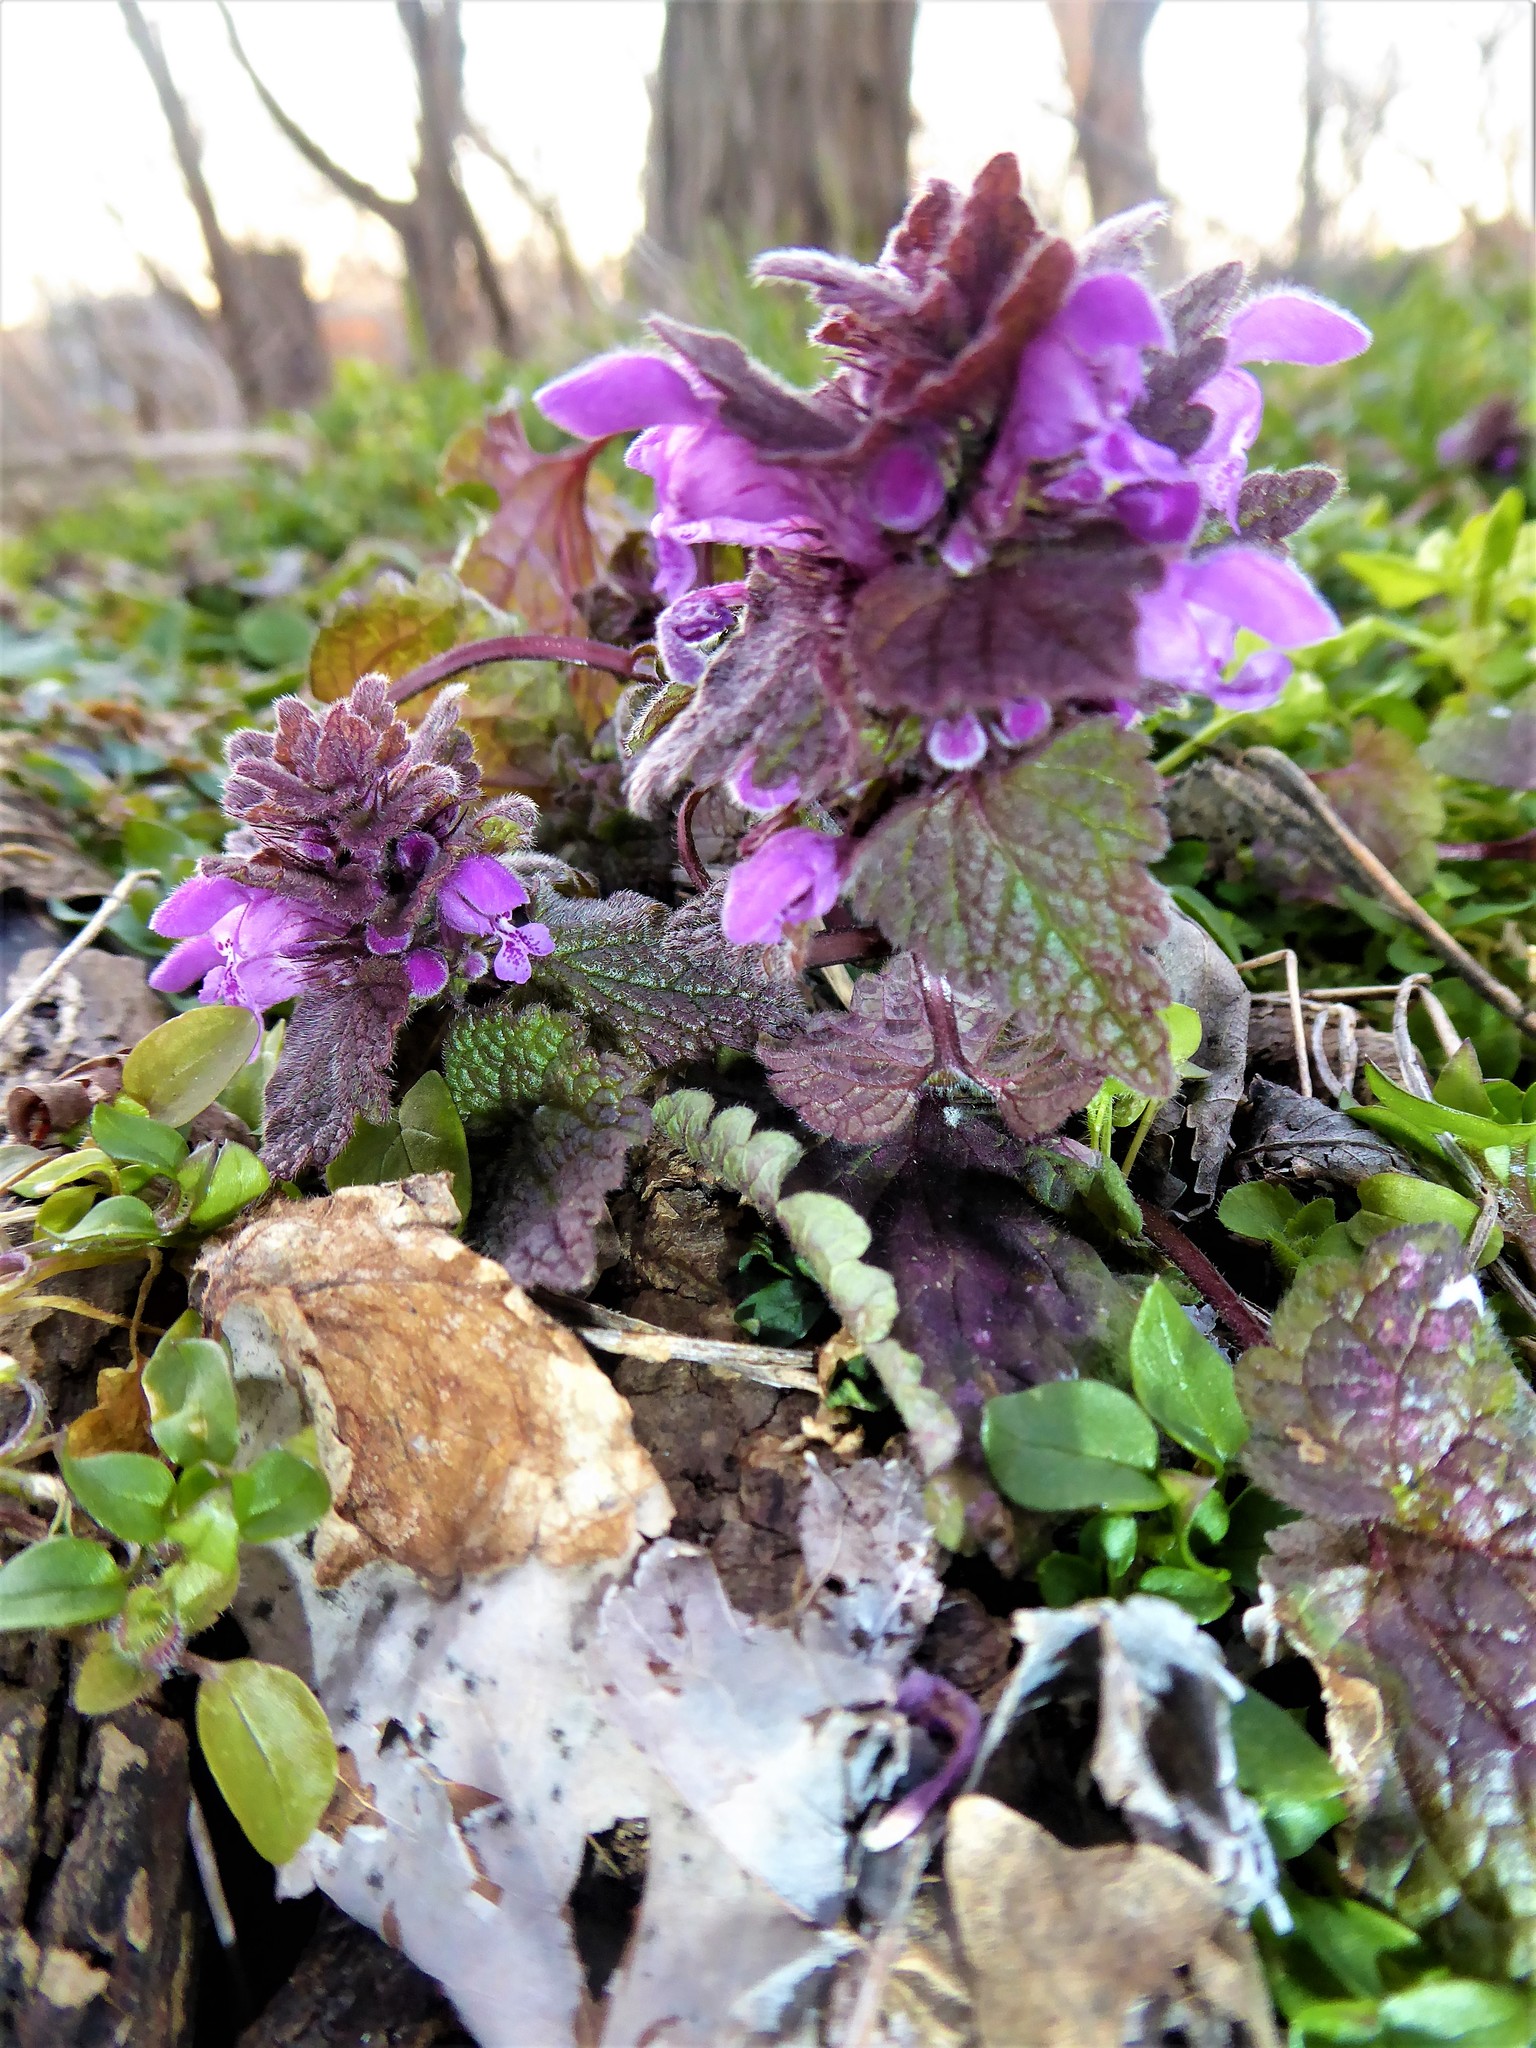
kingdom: Plantae
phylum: Tracheophyta
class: Magnoliopsida
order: Lamiales
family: Lamiaceae
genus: Lamium
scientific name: Lamium purpureum
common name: Red dead-nettle
